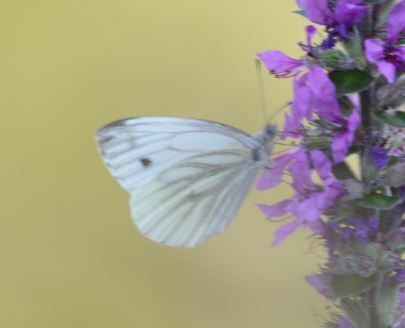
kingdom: Animalia
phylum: Arthropoda
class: Insecta
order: Lepidoptera
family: Pieridae
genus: Pieris
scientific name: Pieris napi
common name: Green-veined white
